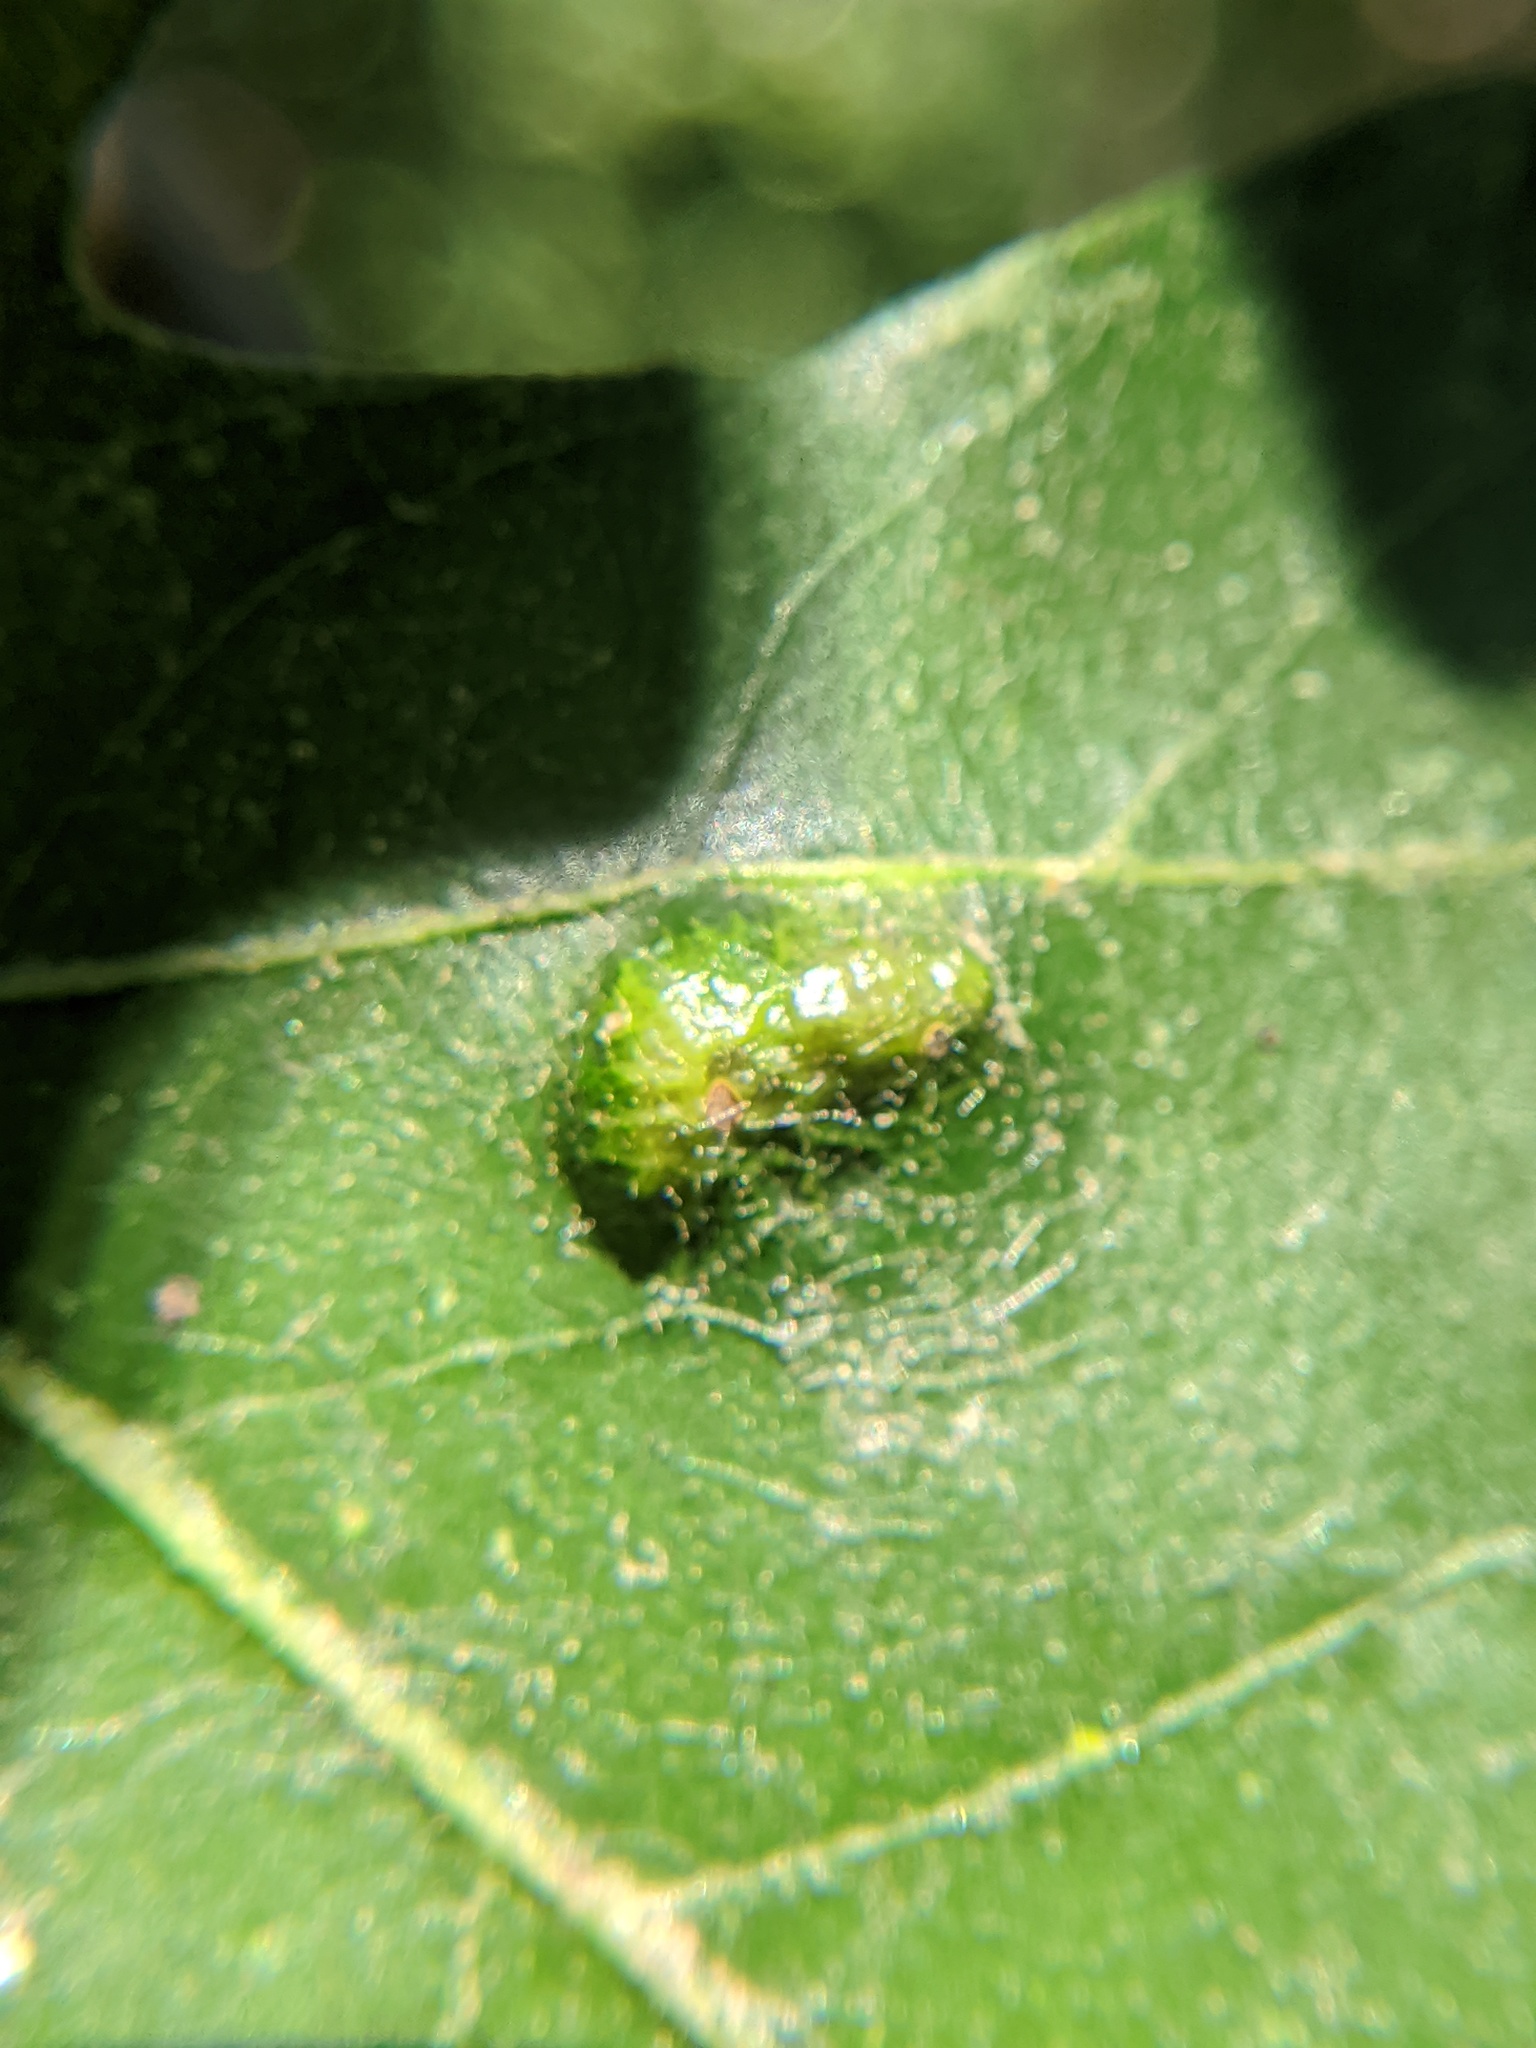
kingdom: Animalia
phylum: Arthropoda
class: Arachnida
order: Trombidiformes
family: Eriophyidae
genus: Aceria
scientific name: Aceria quercina
